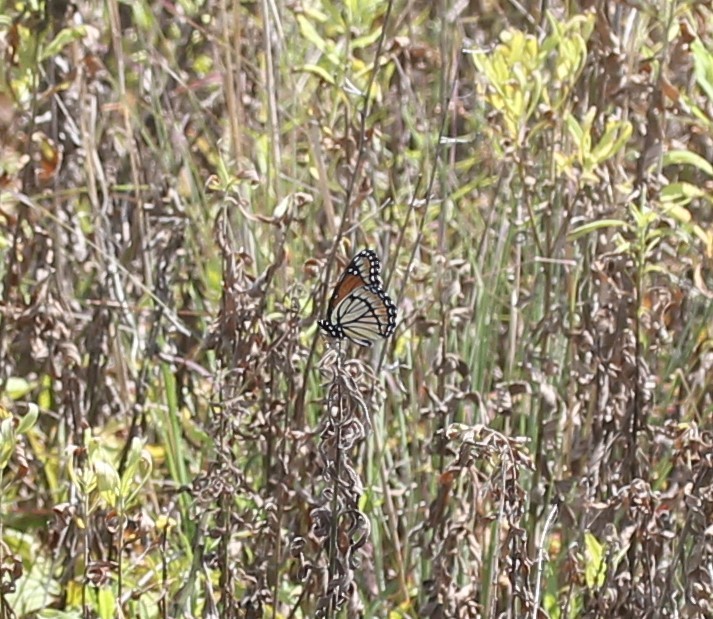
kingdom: Animalia
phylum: Arthropoda
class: Insecta
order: Lepidoptera
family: Nymphalidae
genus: Limenitis
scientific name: Limenitis archippus
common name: Viceroy
